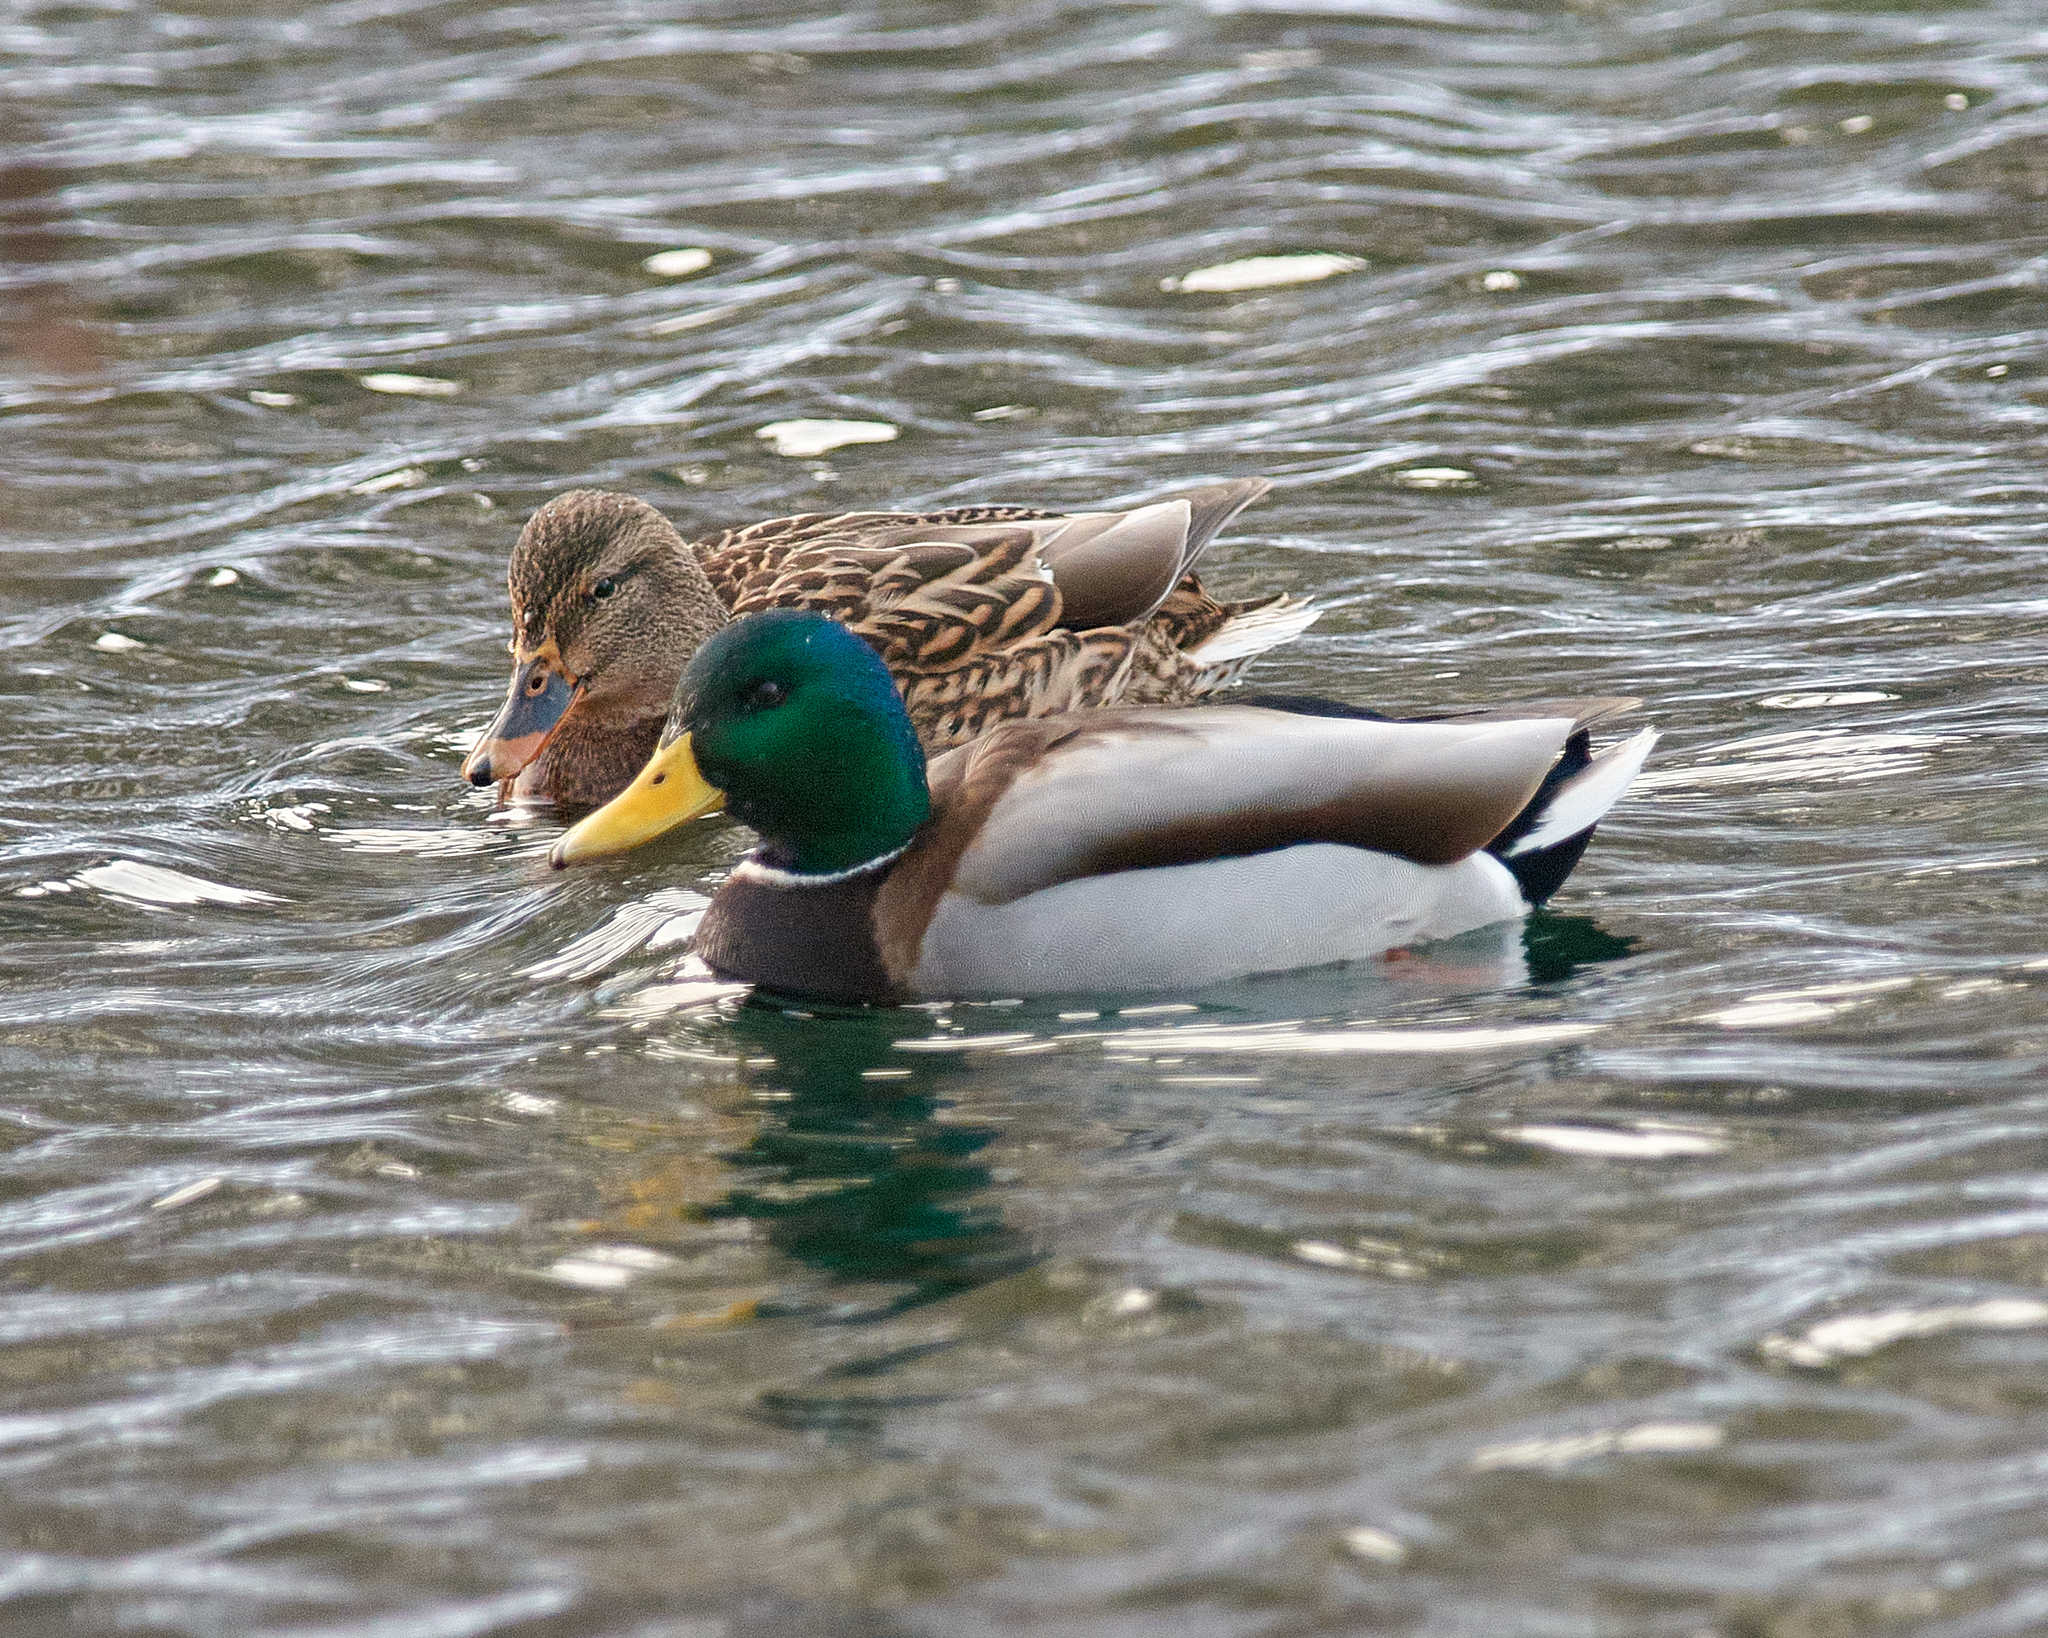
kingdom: Animalia
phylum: Chordata
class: Aves
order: Anseriformes
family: Anatidae
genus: Anas
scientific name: Anas platyrhynchos
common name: Mallard
